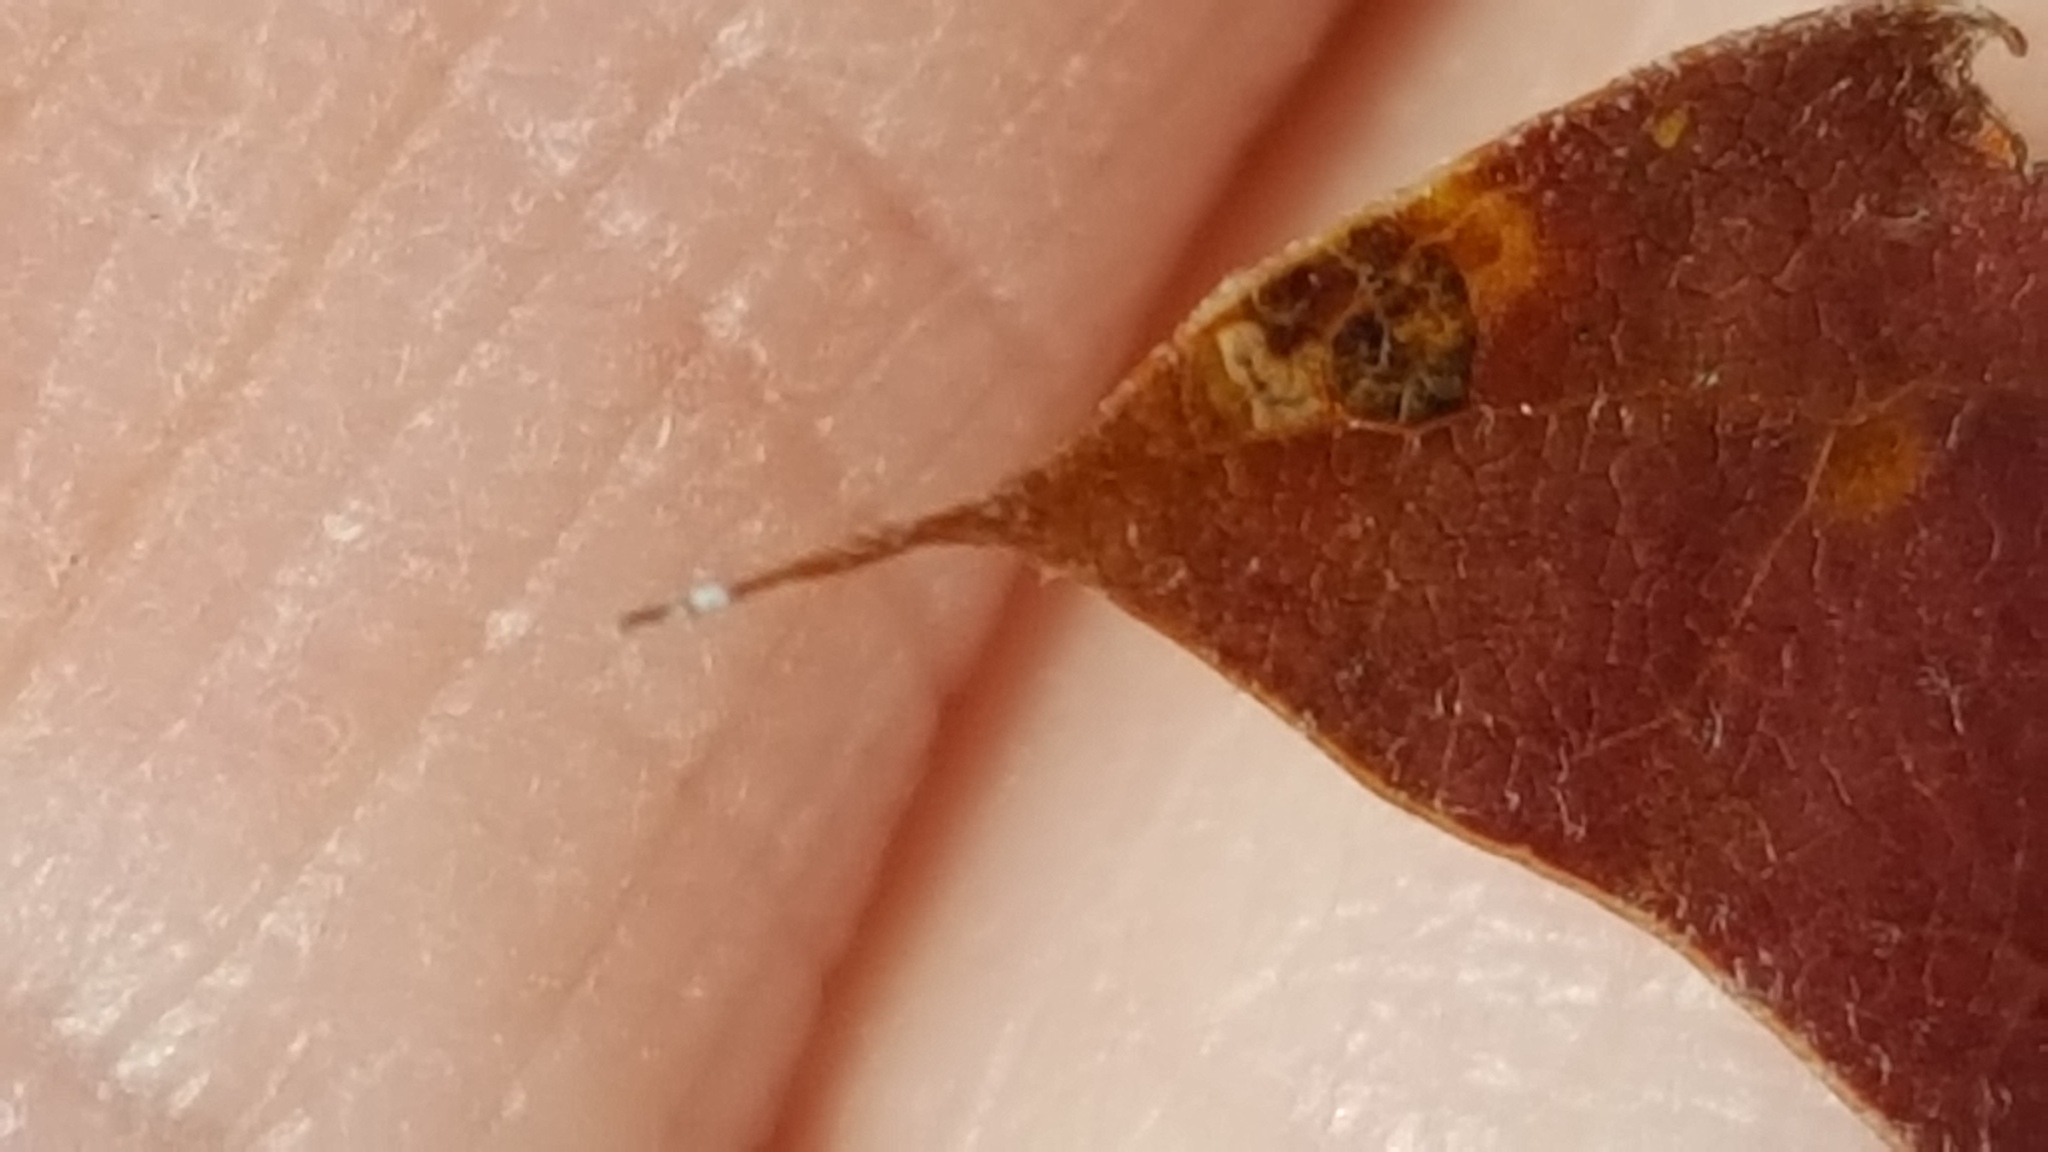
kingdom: Plantae
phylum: Tracheophyta
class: Magnoliopsida
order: Fagales
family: Fagaceae
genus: Quercus
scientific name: Quercus rubra
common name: Red oak
